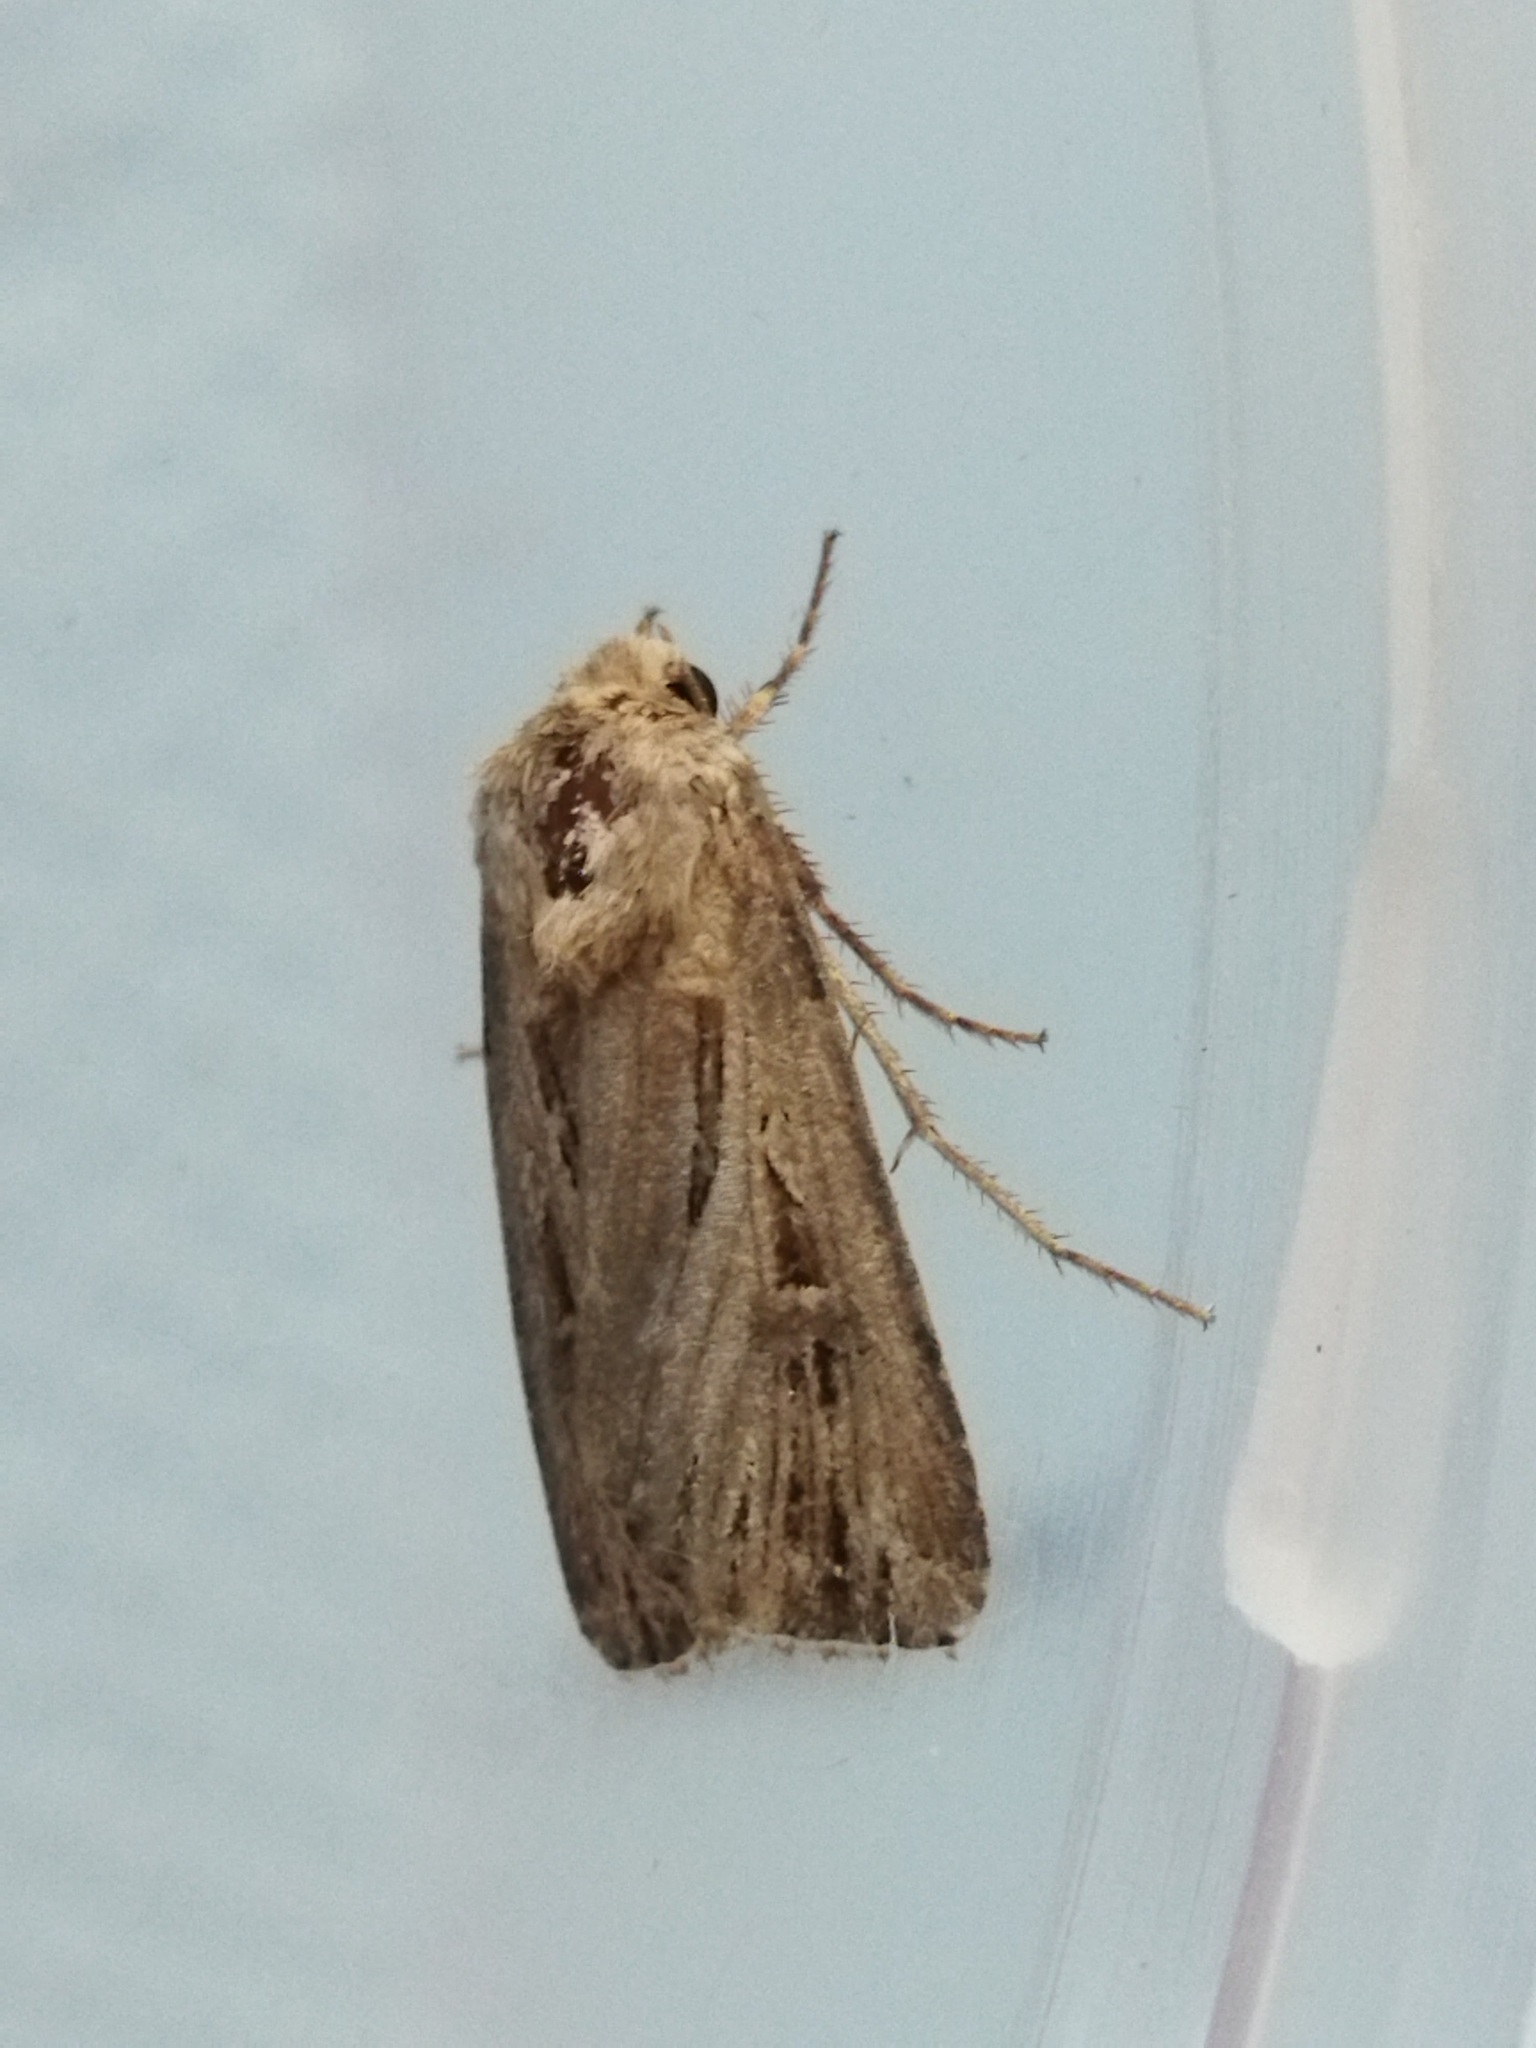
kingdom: Animalia
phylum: Arthropoda
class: Insecta
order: Lepidoptera
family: Noctuidae
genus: Agrotis
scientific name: Agrotis
